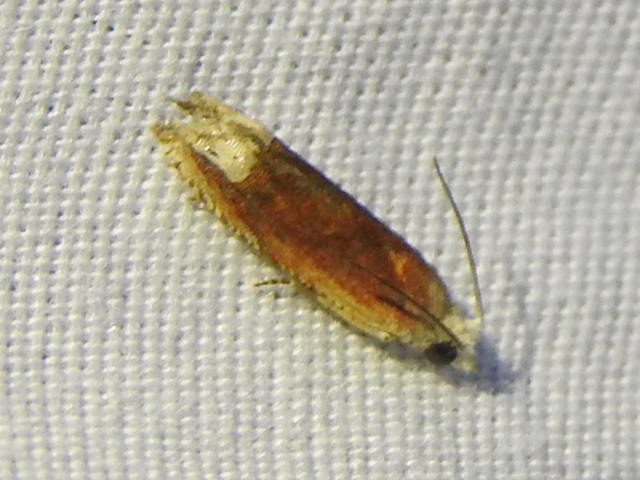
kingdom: Animalia
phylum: Arthropoda
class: Insecta
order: Lepidoptera
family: Tortricidae
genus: Eucosma
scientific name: Eucosma raracana
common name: Reddish eucosma moth
